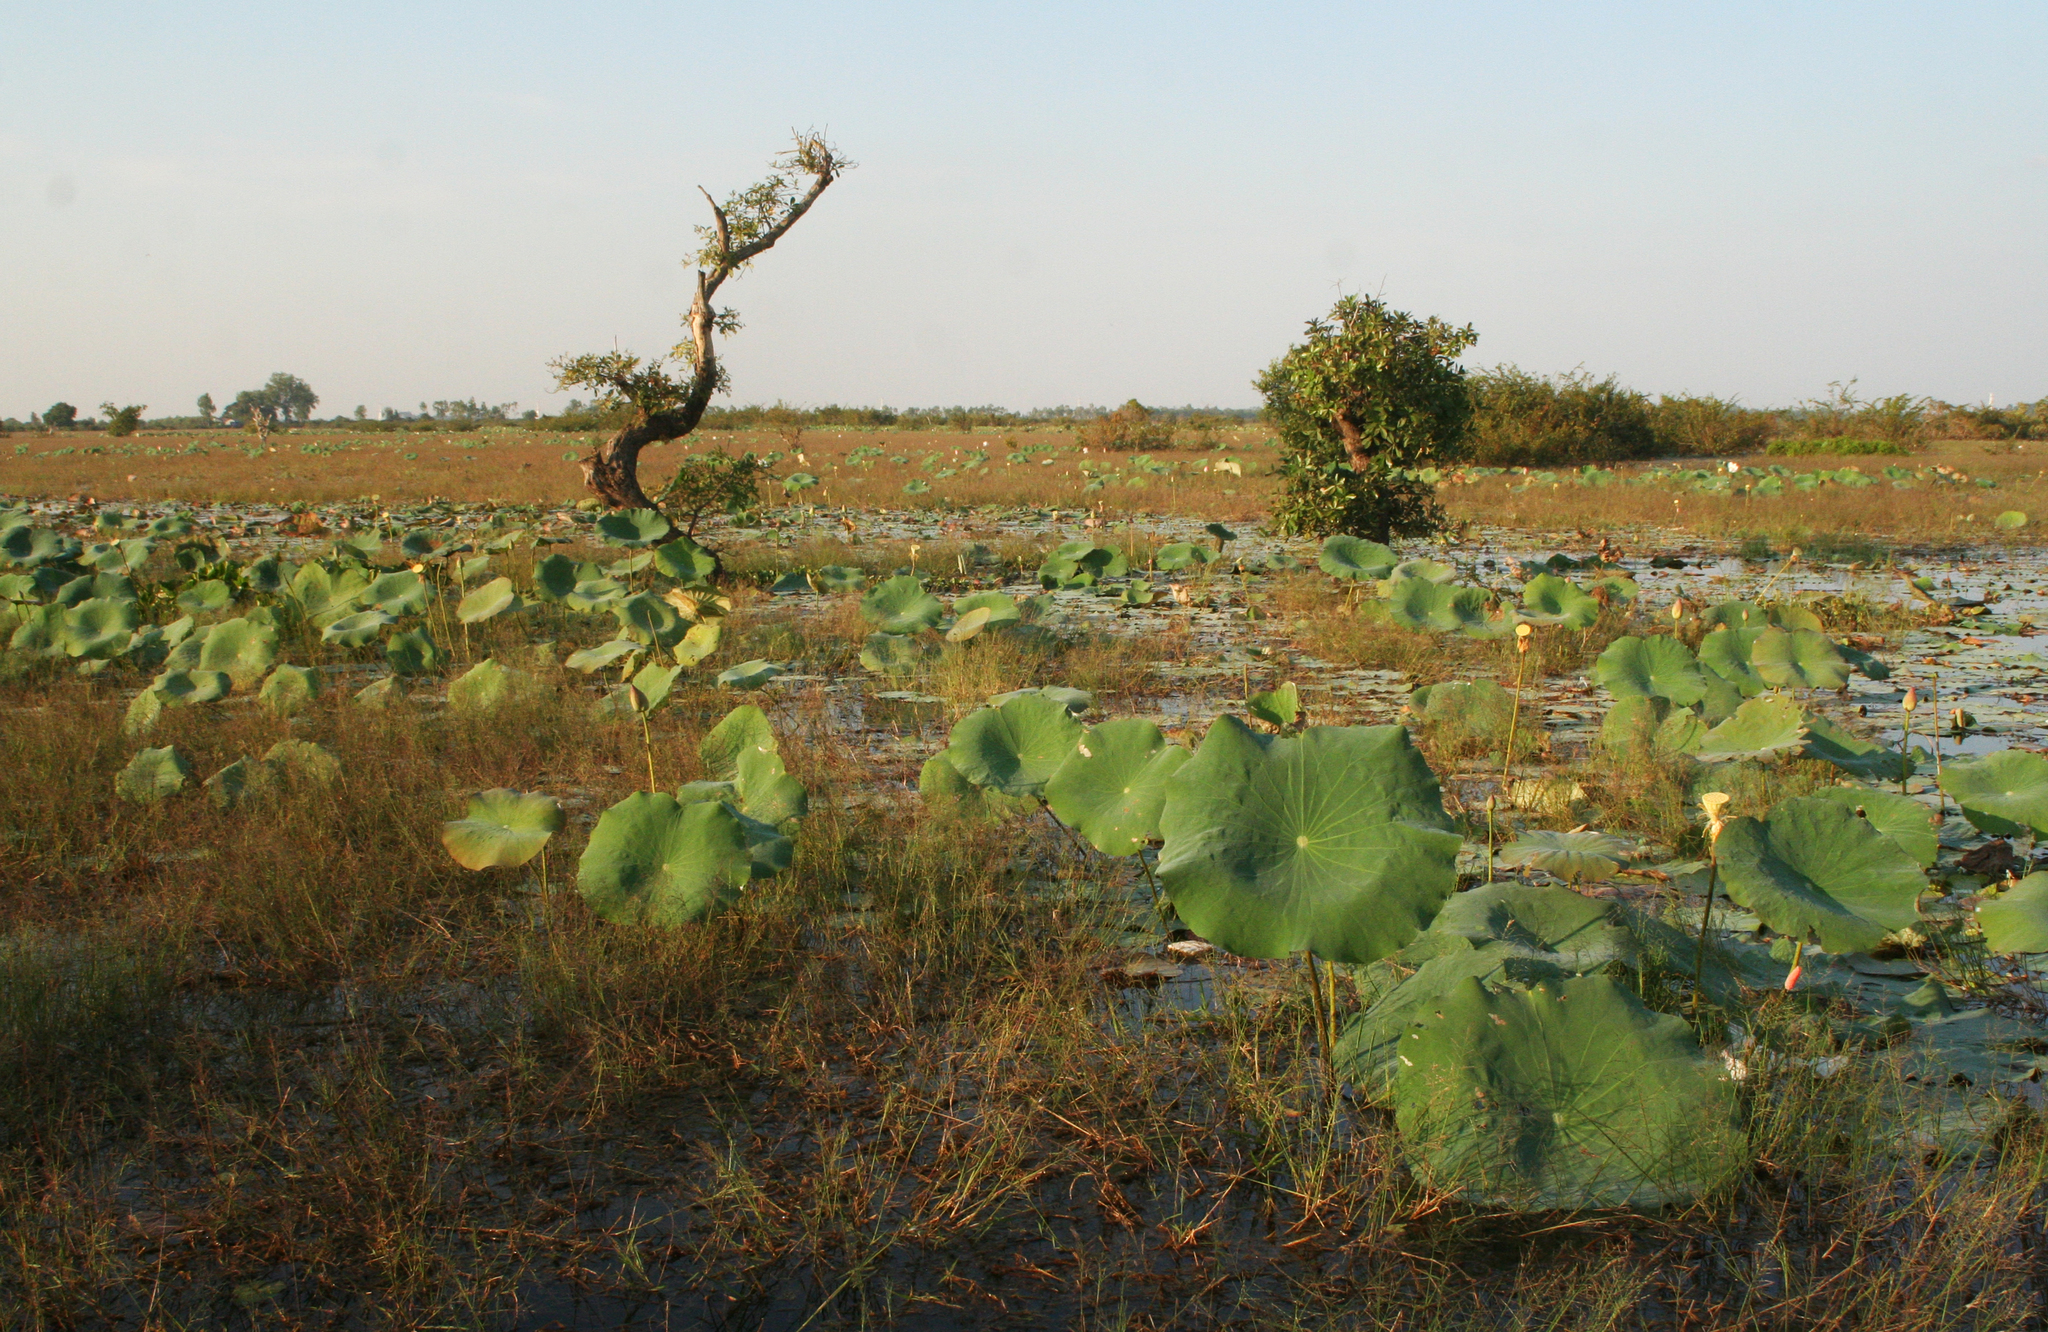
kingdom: Plantae
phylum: Tracheophyta
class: Magnoliopsida
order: Proteales
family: Nelumbonaceae
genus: Nelumbo
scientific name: Nelumbo nucifera
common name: Sacred lotus
